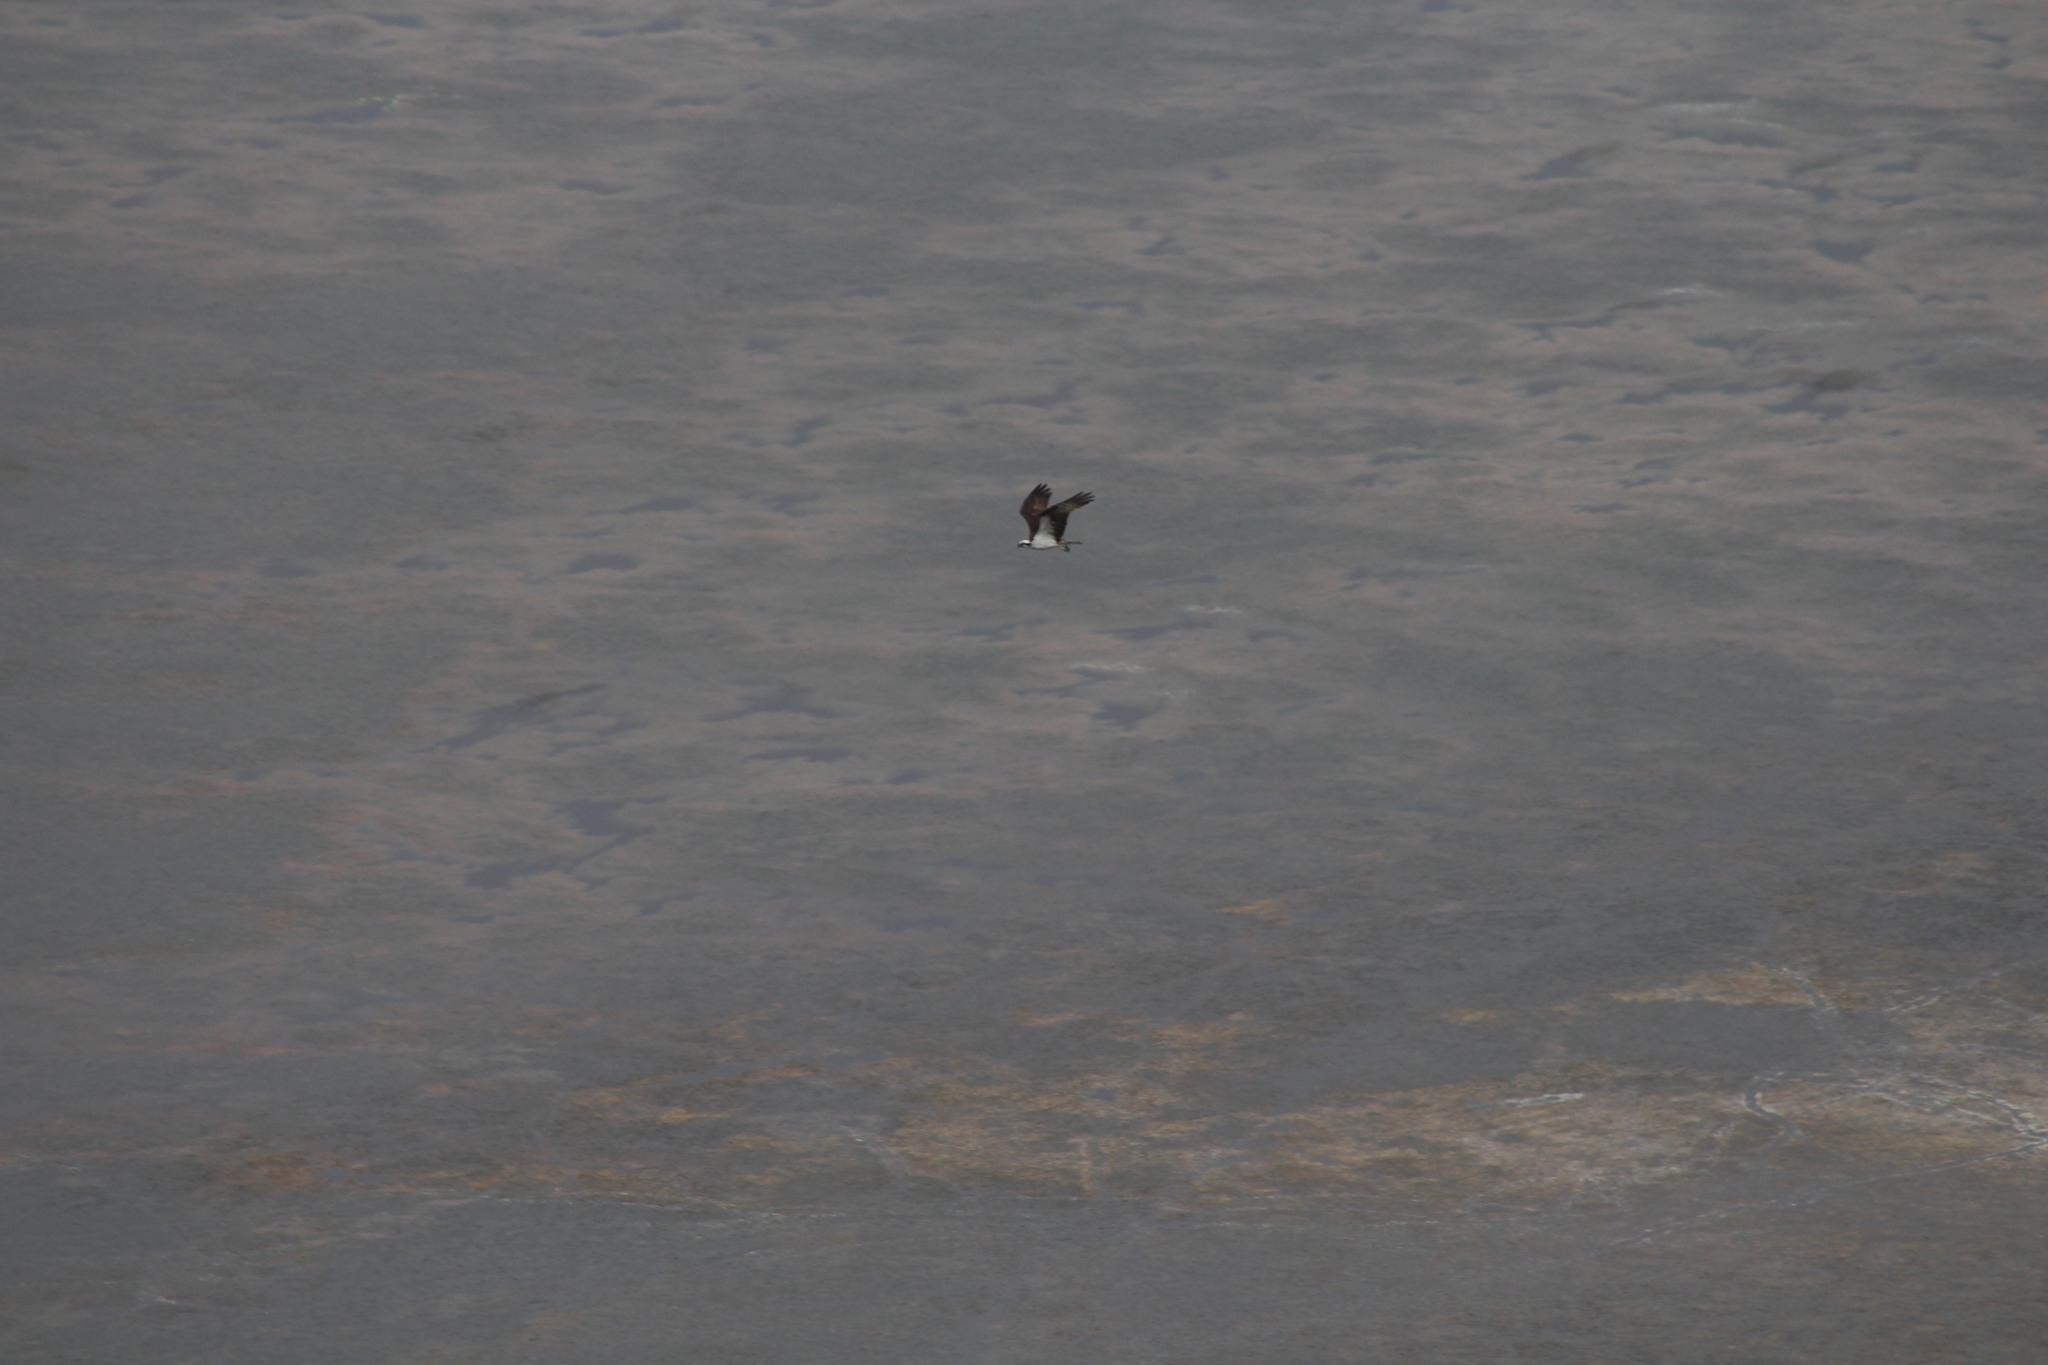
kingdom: Animalia
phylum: Chordata
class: Aves
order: Accipitriformes
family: Pandionidae
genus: Pandion
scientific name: Pandion haliaetus
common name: Osprey
